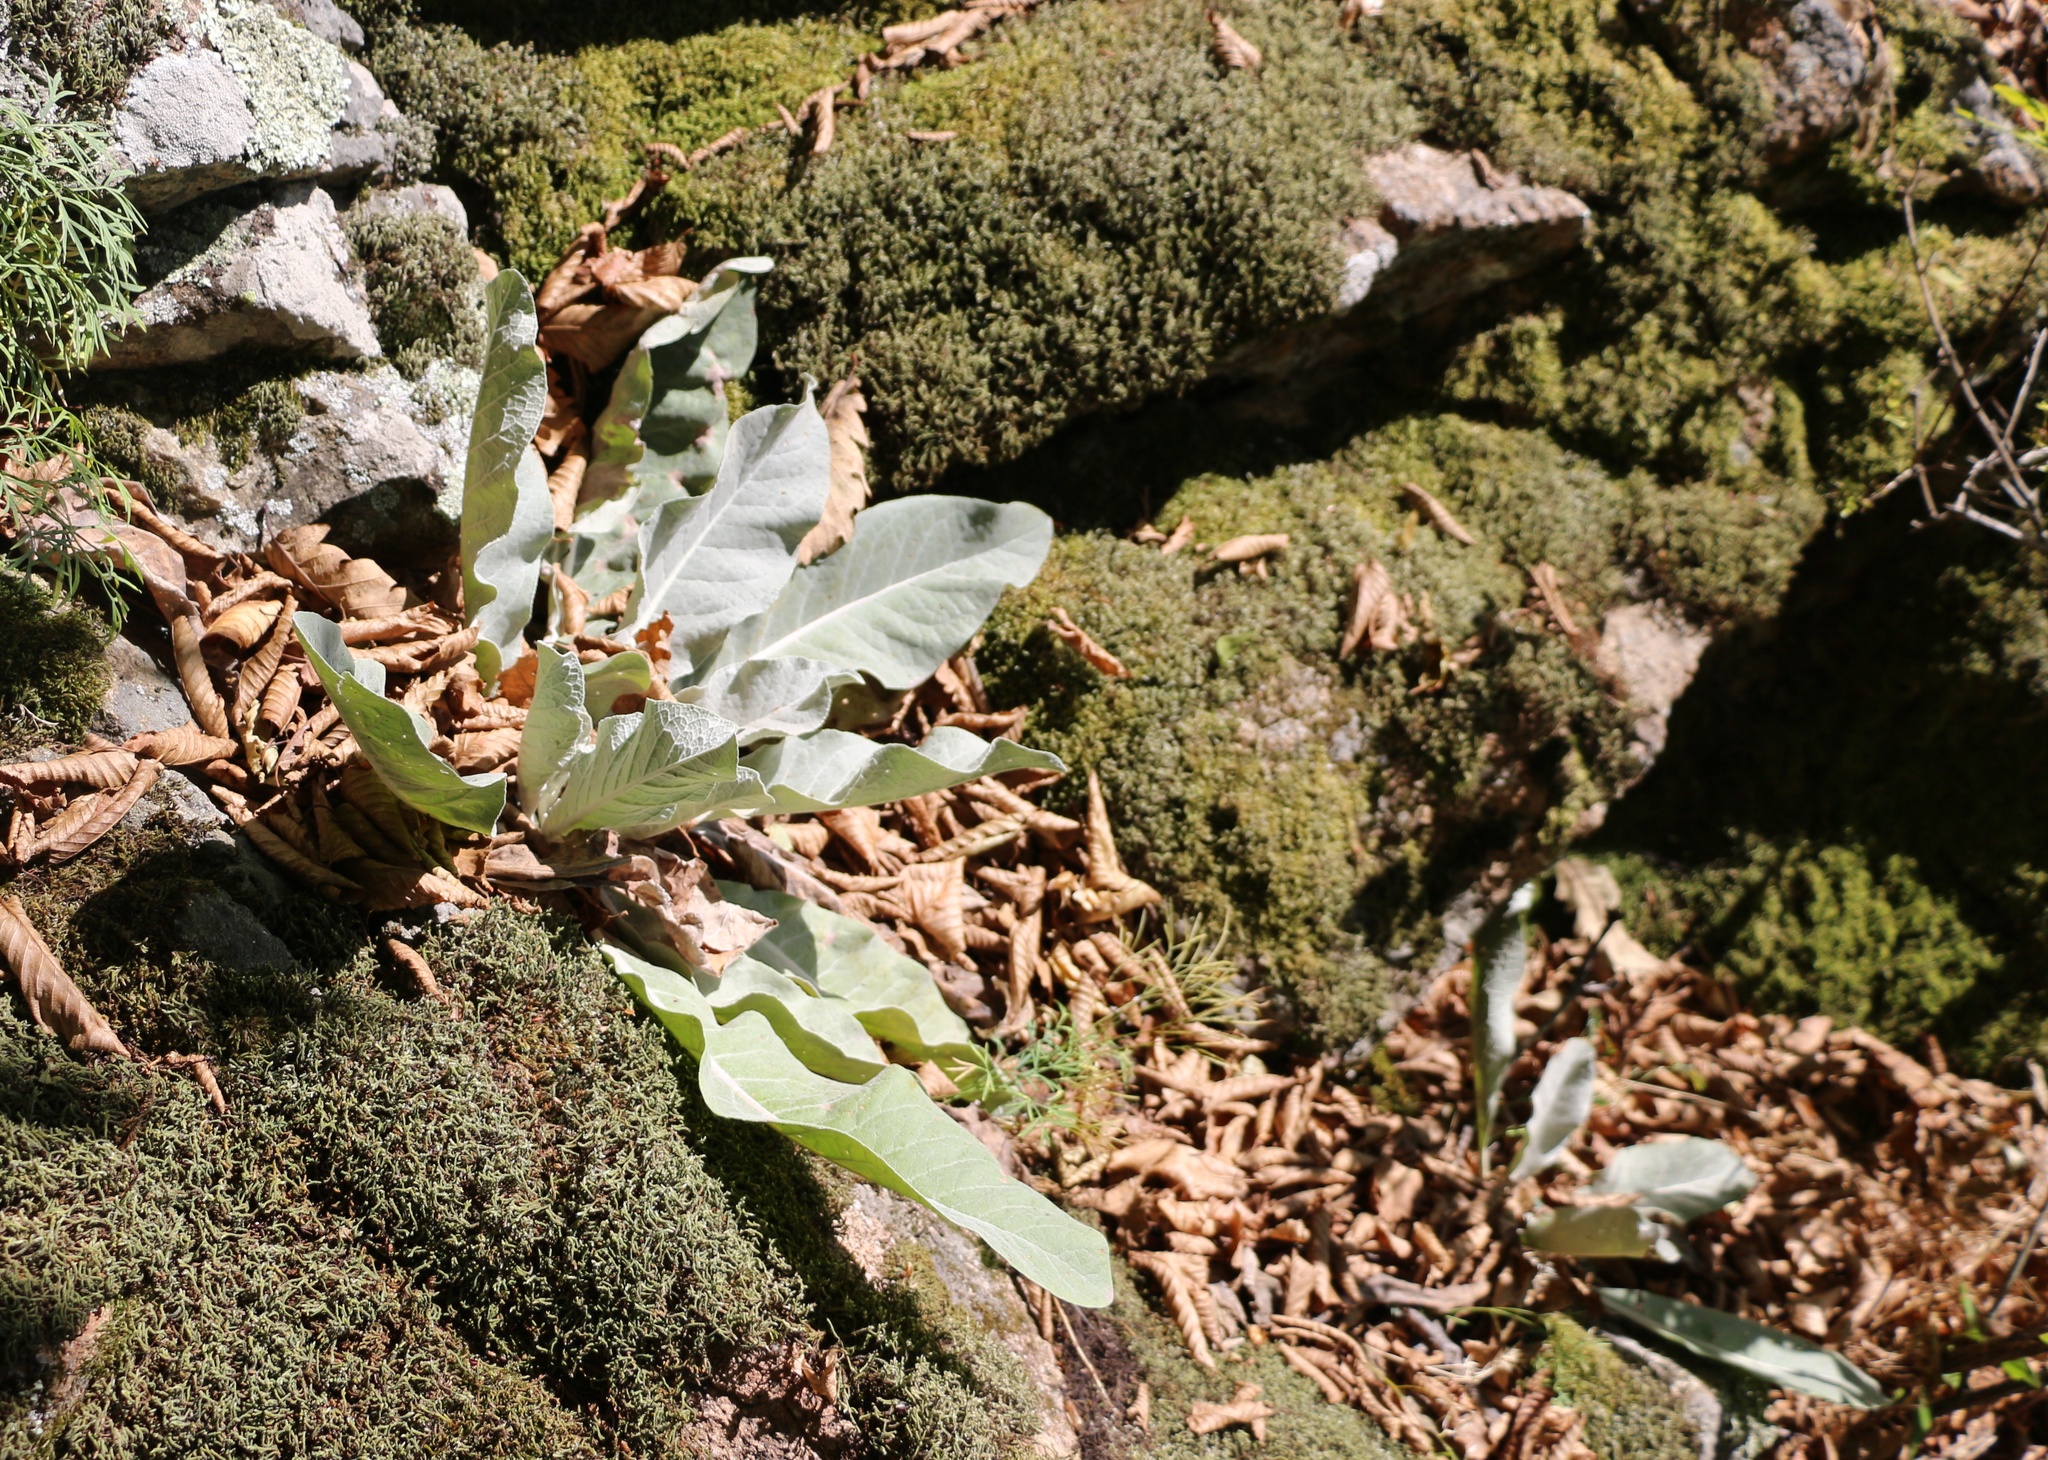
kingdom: Plantae
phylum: Tracheophyta
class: Magnoliopsida
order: Lamiales
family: Scrophulariaceae
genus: Verbascum
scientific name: Verbascum gnaphalodes
